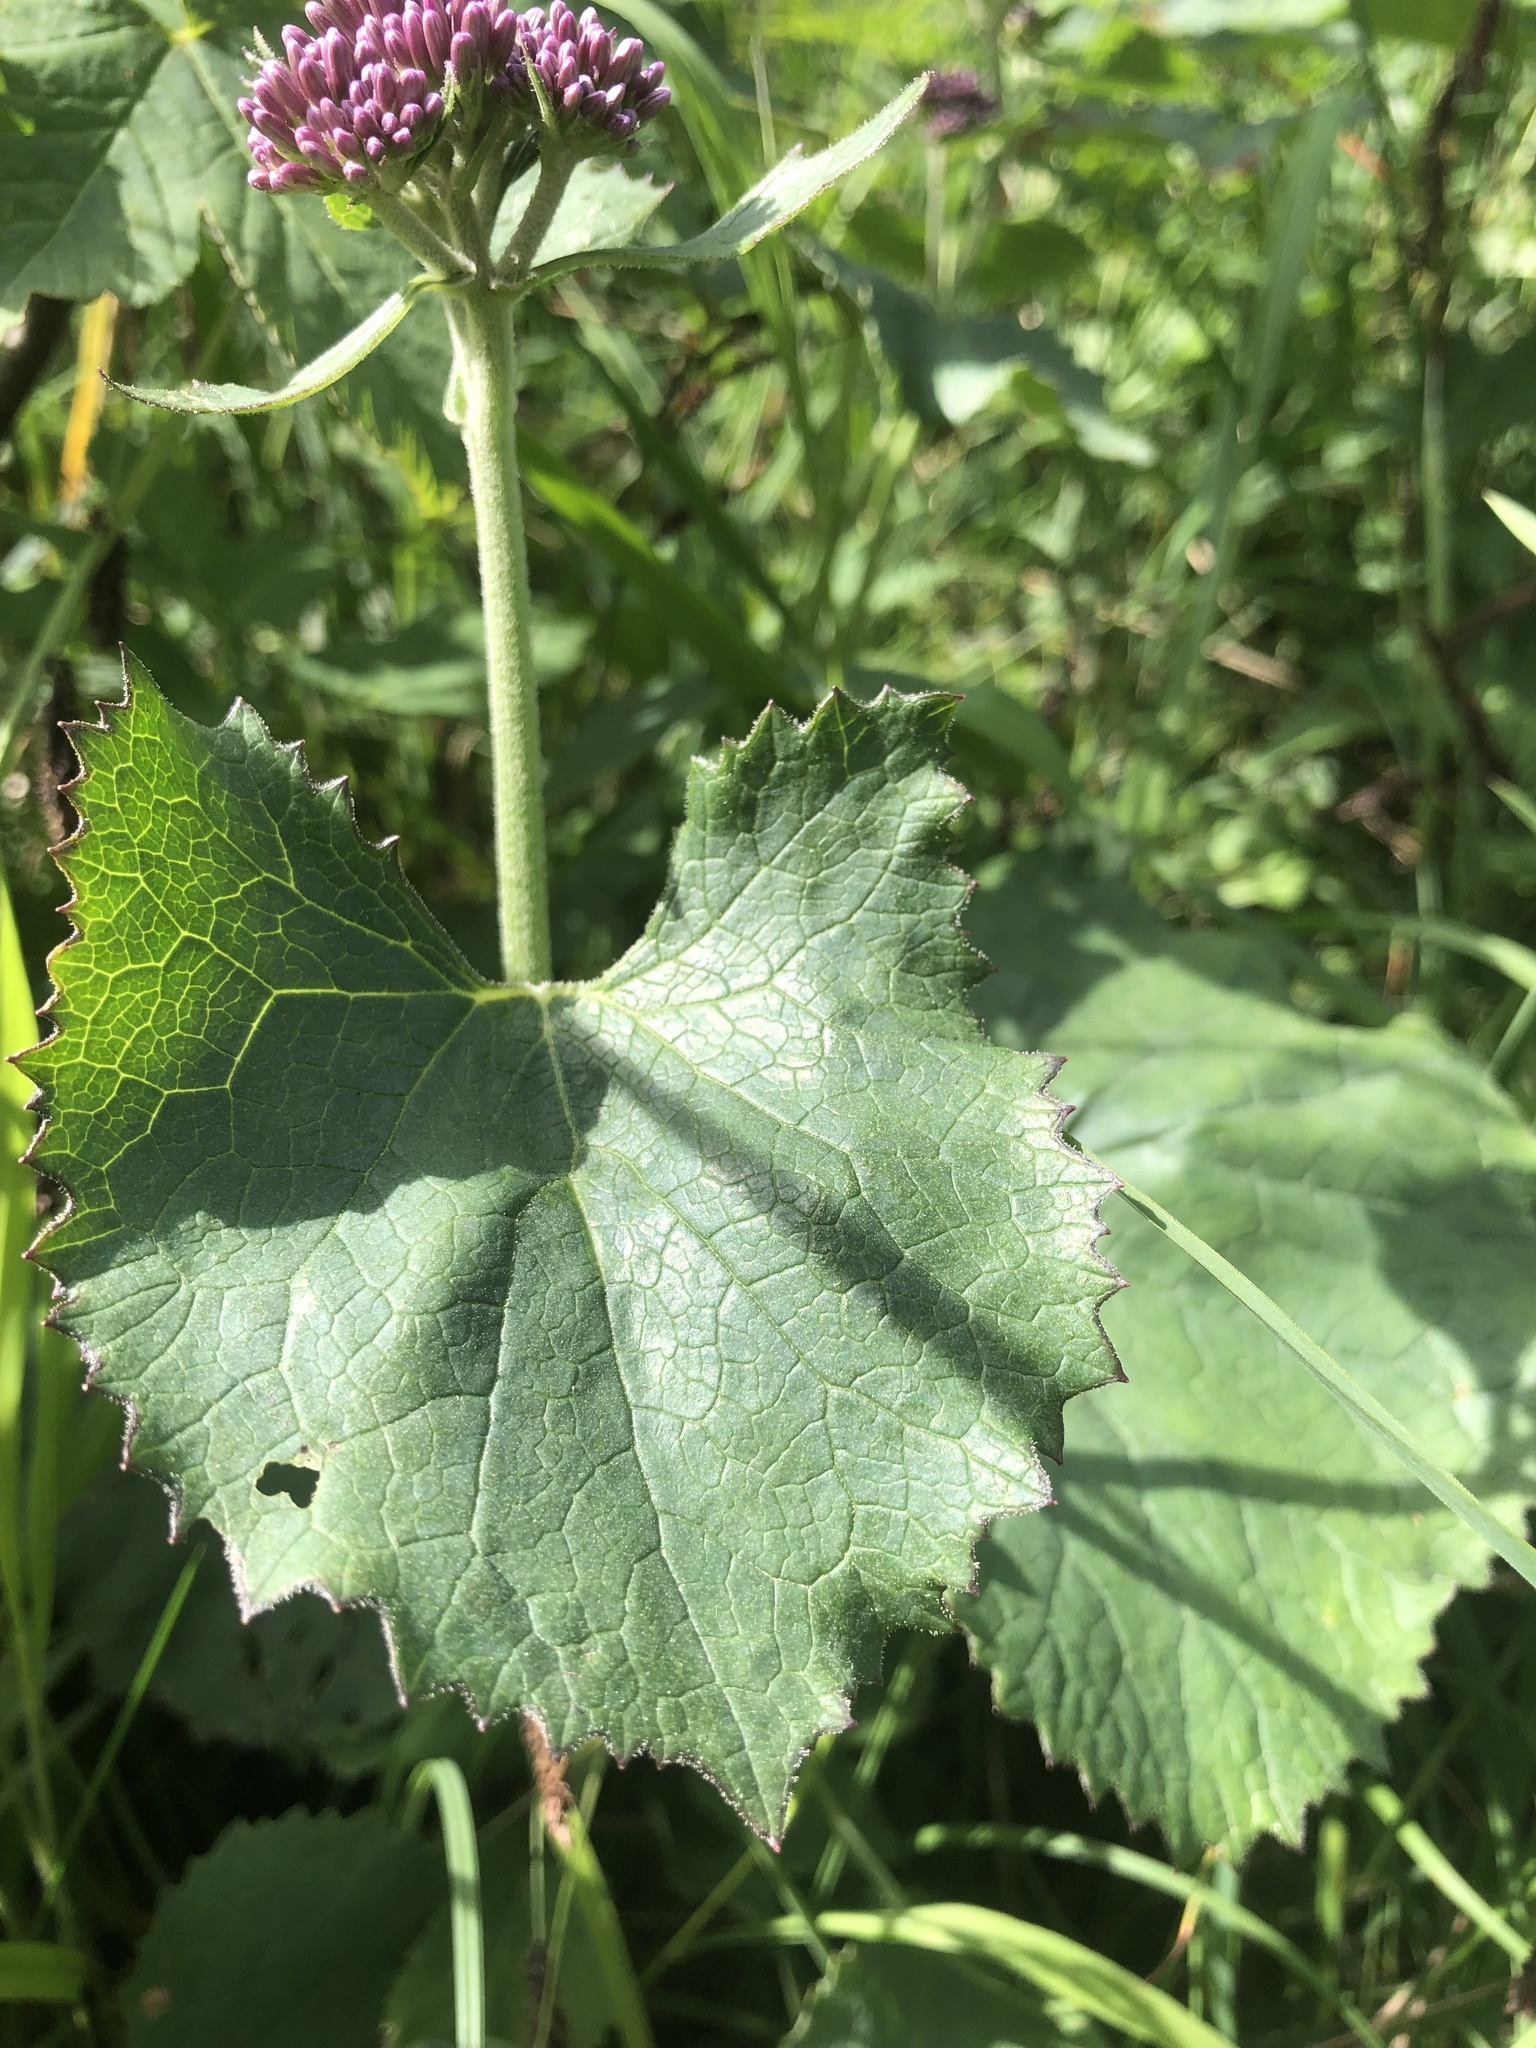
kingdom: Plantae
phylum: Tracheophyta
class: Magnoliopsida
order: Asterales
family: Asteraceae
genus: Adenostyles
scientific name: Adenostyles alliariae
